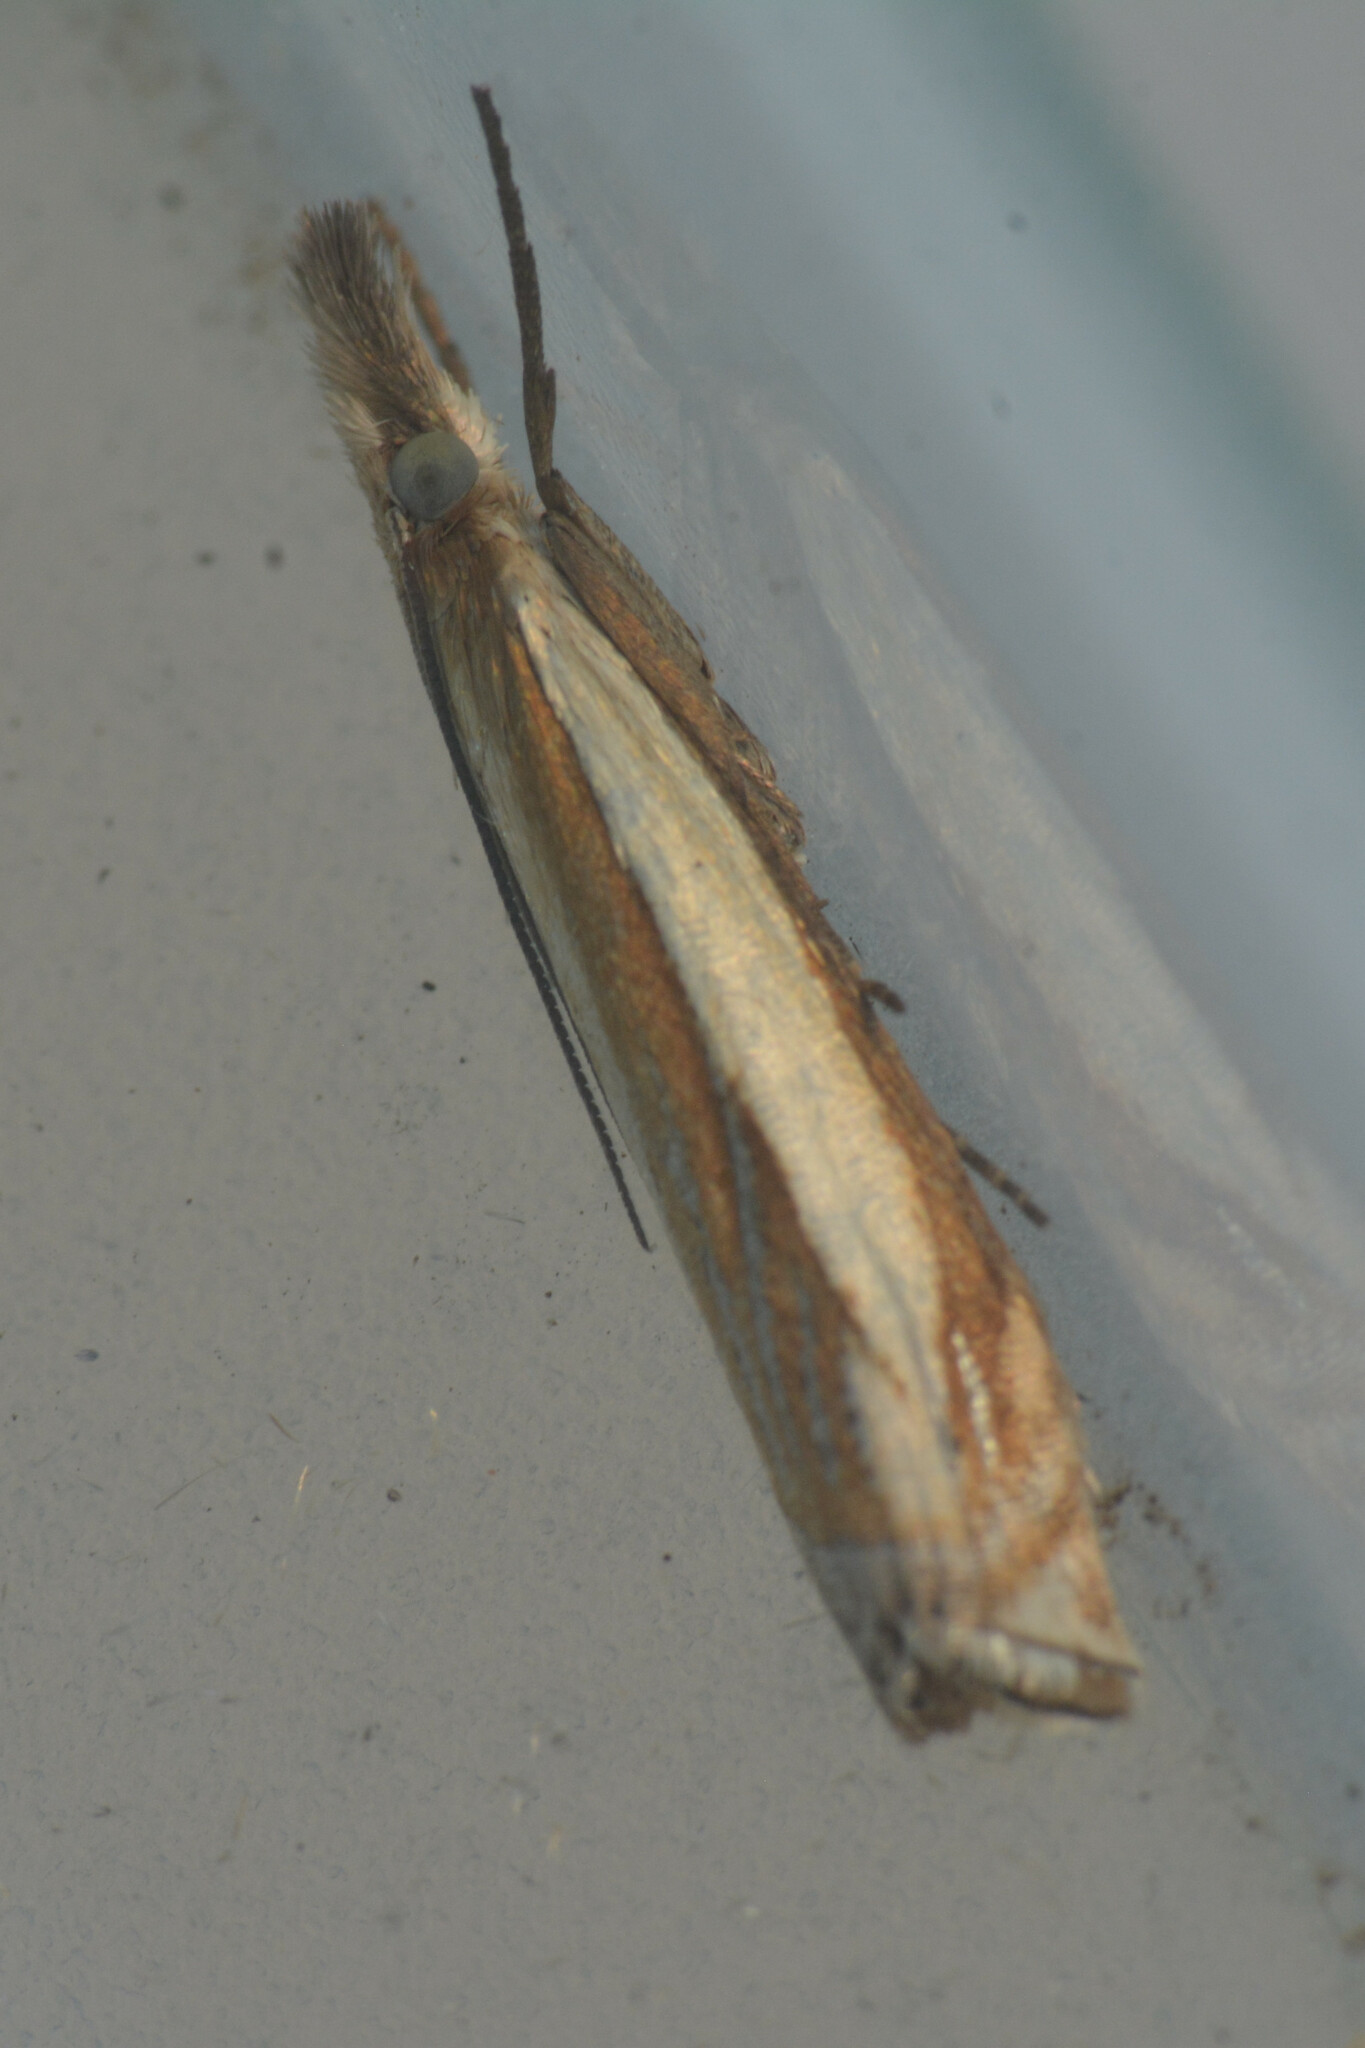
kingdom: Animalia
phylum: Arthropoda
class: Insecta
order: Lepidoptera
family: Crambidae
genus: Crambus
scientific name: Crambus pascuella
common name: Inlaid grass-veneer
